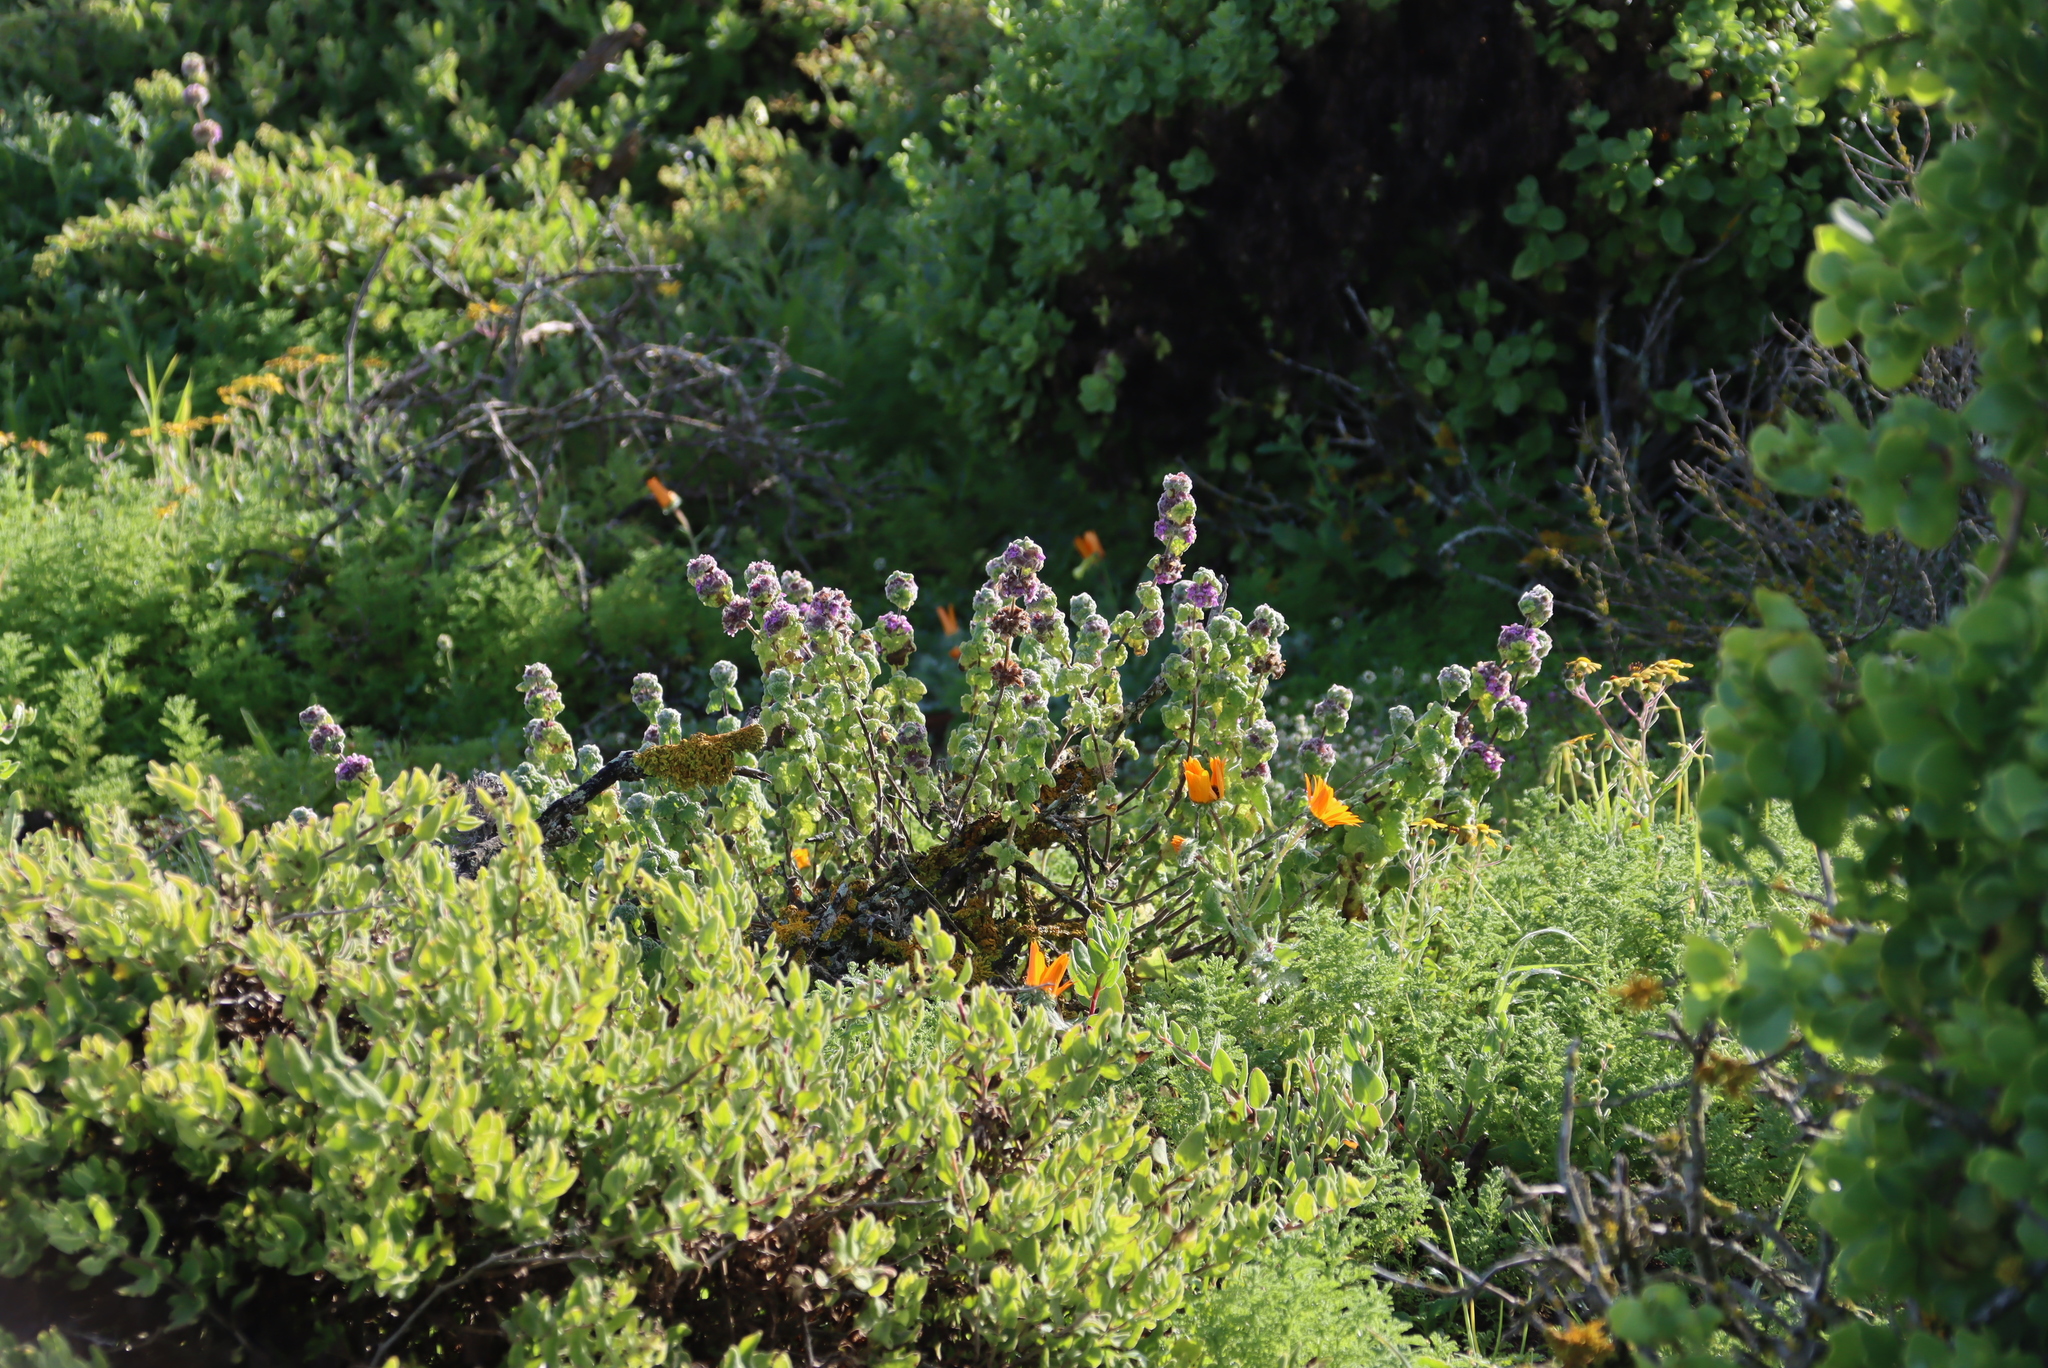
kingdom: Plantae
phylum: Tracheophyta
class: Magnoliopsida
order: Lamiales
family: Lamiaceae
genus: Pseudodictamnus
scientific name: Pseudodictamnus africanus
